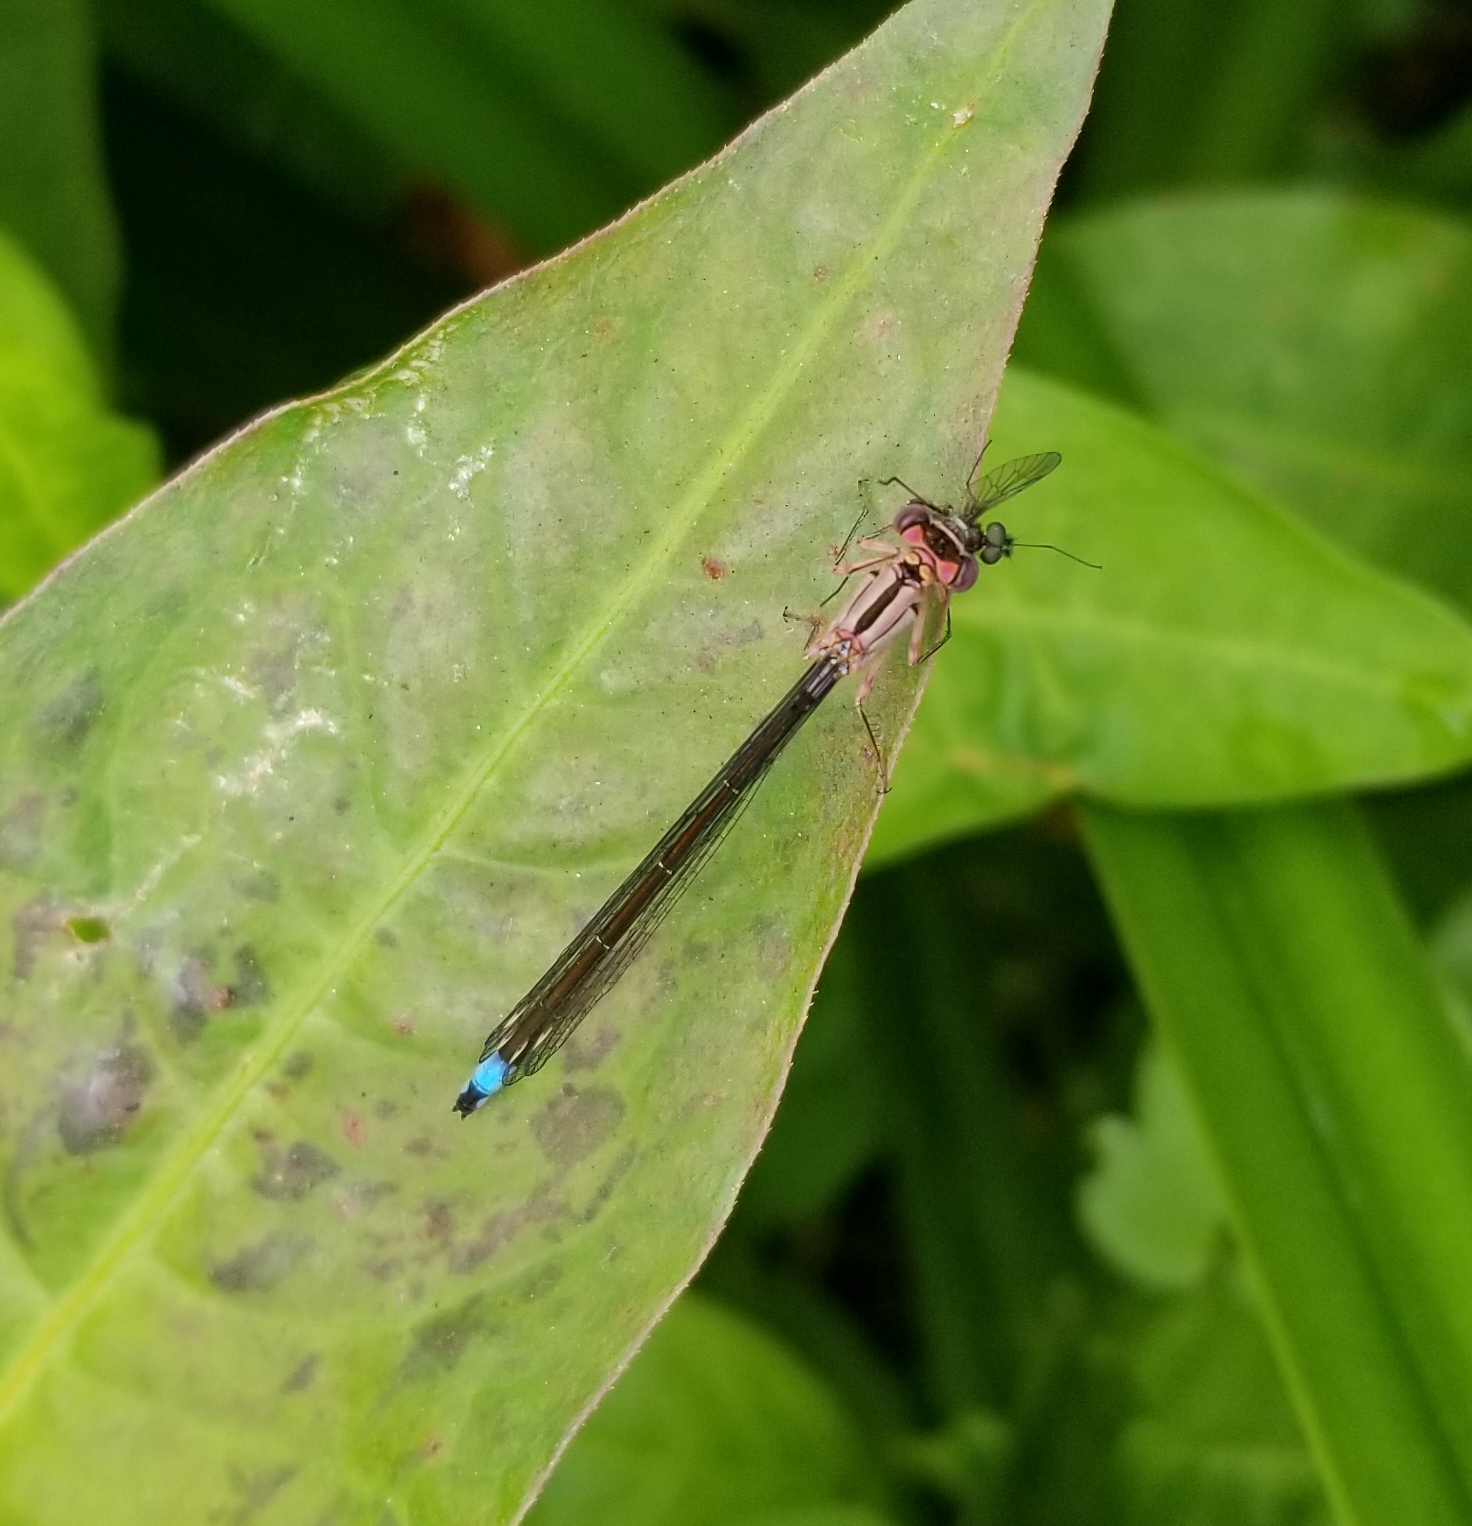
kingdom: Animalia
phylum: Arthropoda
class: Insecta
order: Odonata
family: Coenagrionidae
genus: Ischnura
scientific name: Ischnura cervula
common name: Pacific forktail
